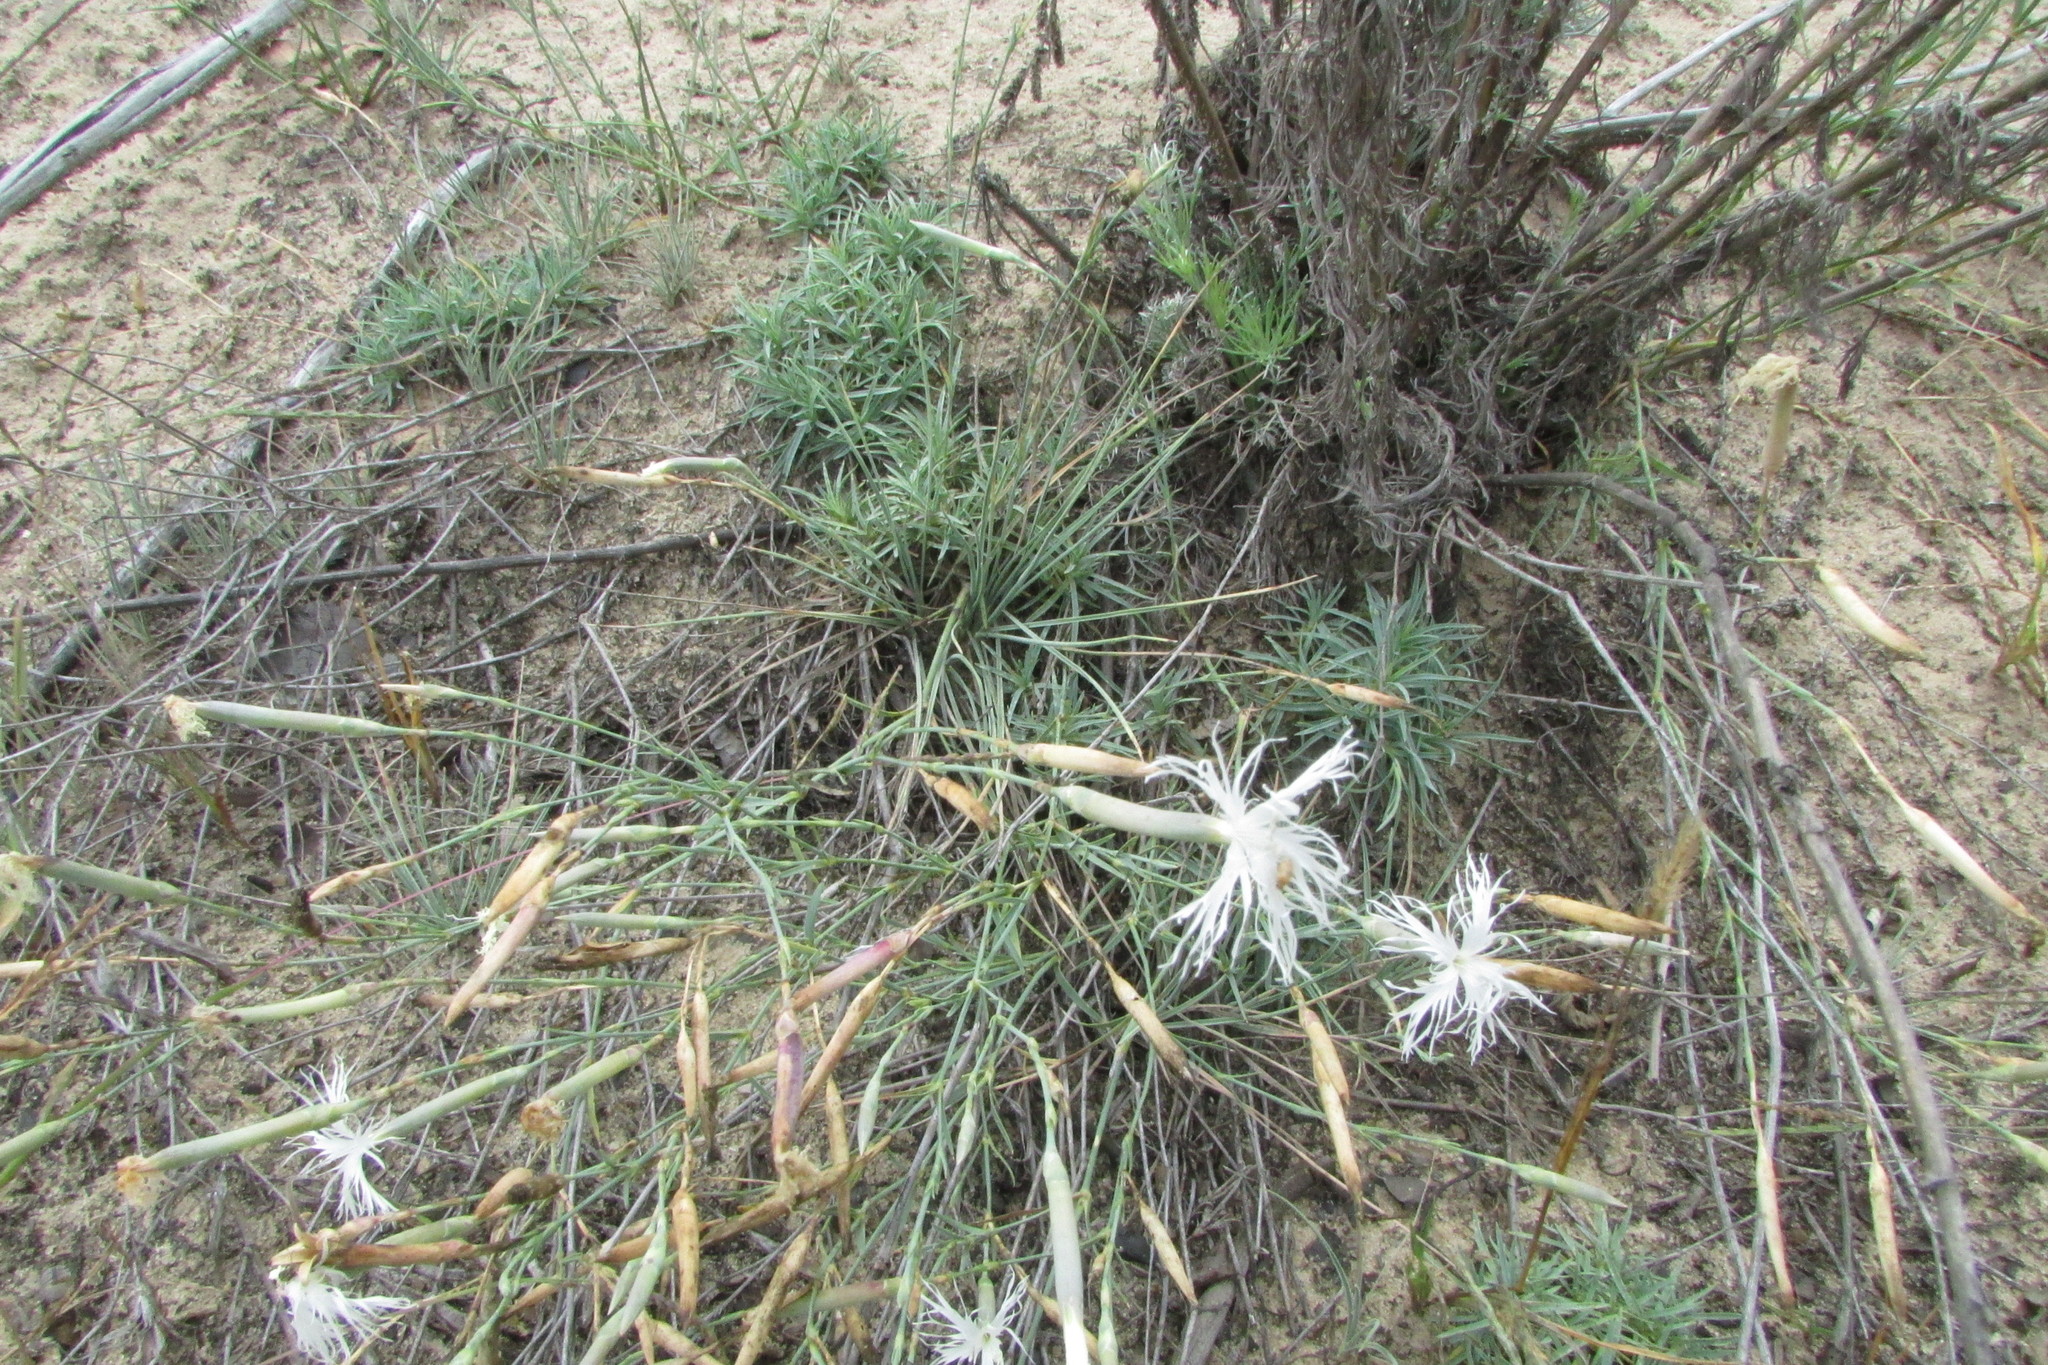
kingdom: Plantae
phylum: Tracheophyta
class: Magnoliopsida
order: Caryophyllales
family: Caryophyllaceae
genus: Dianthus
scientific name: Dianthus volgicus
